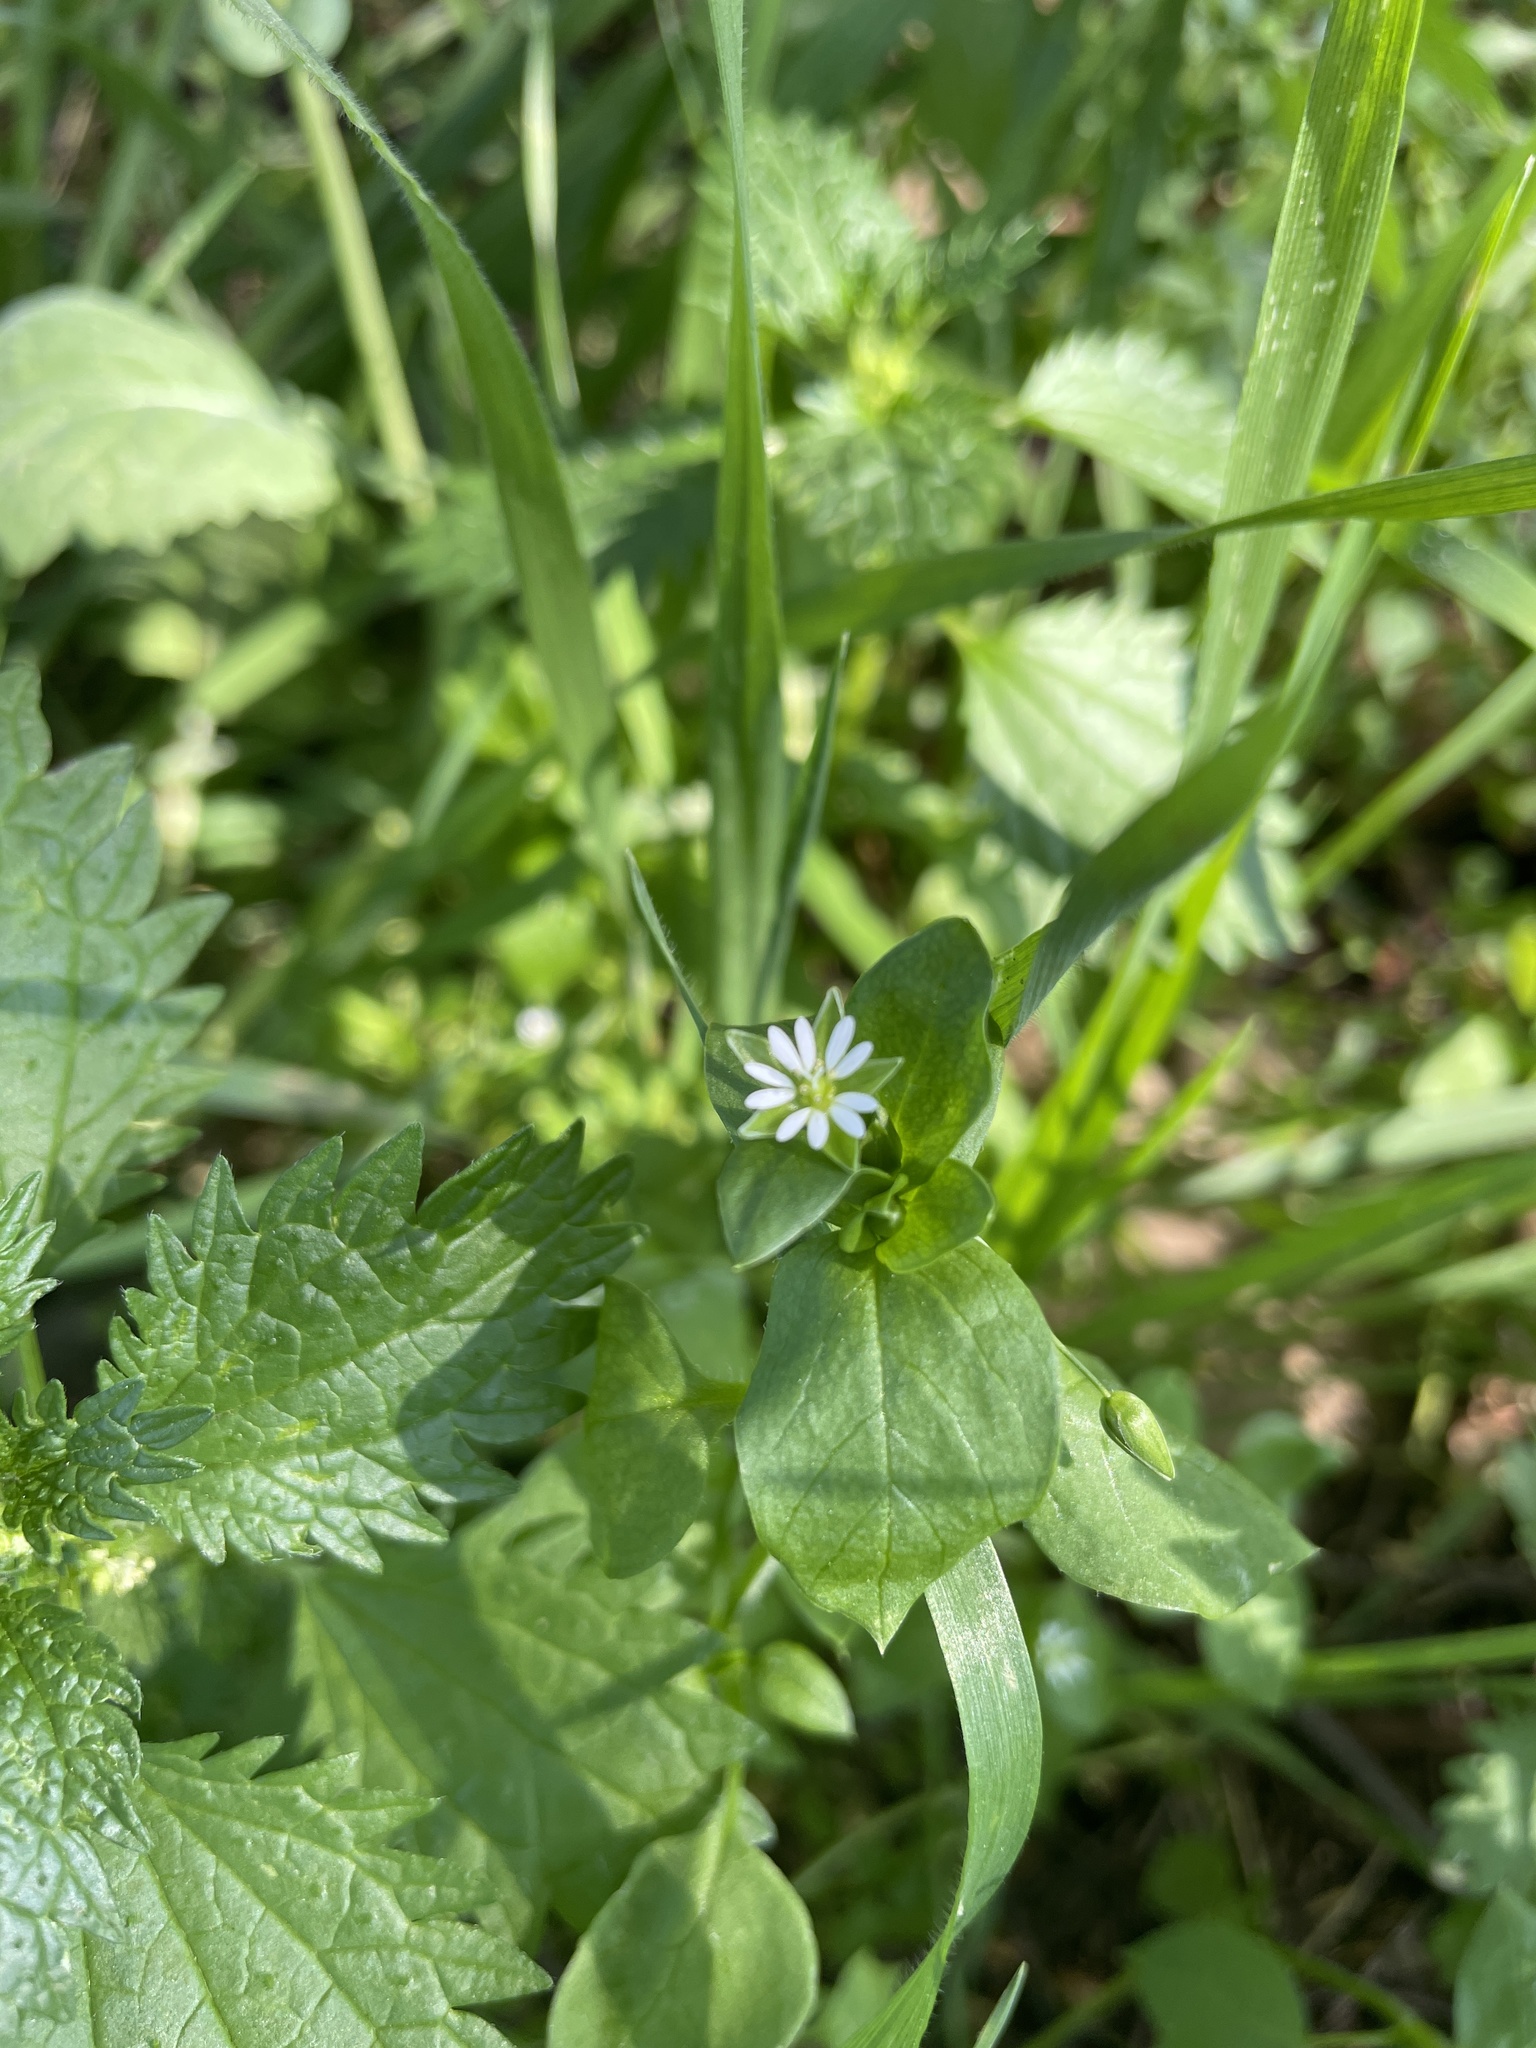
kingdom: Plantae
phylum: Tracheophyta
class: Magnoliopsida
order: Caryophyllales
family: Caryophyllaceae
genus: Stellaria
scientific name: Stellaria media
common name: Common chickweed
